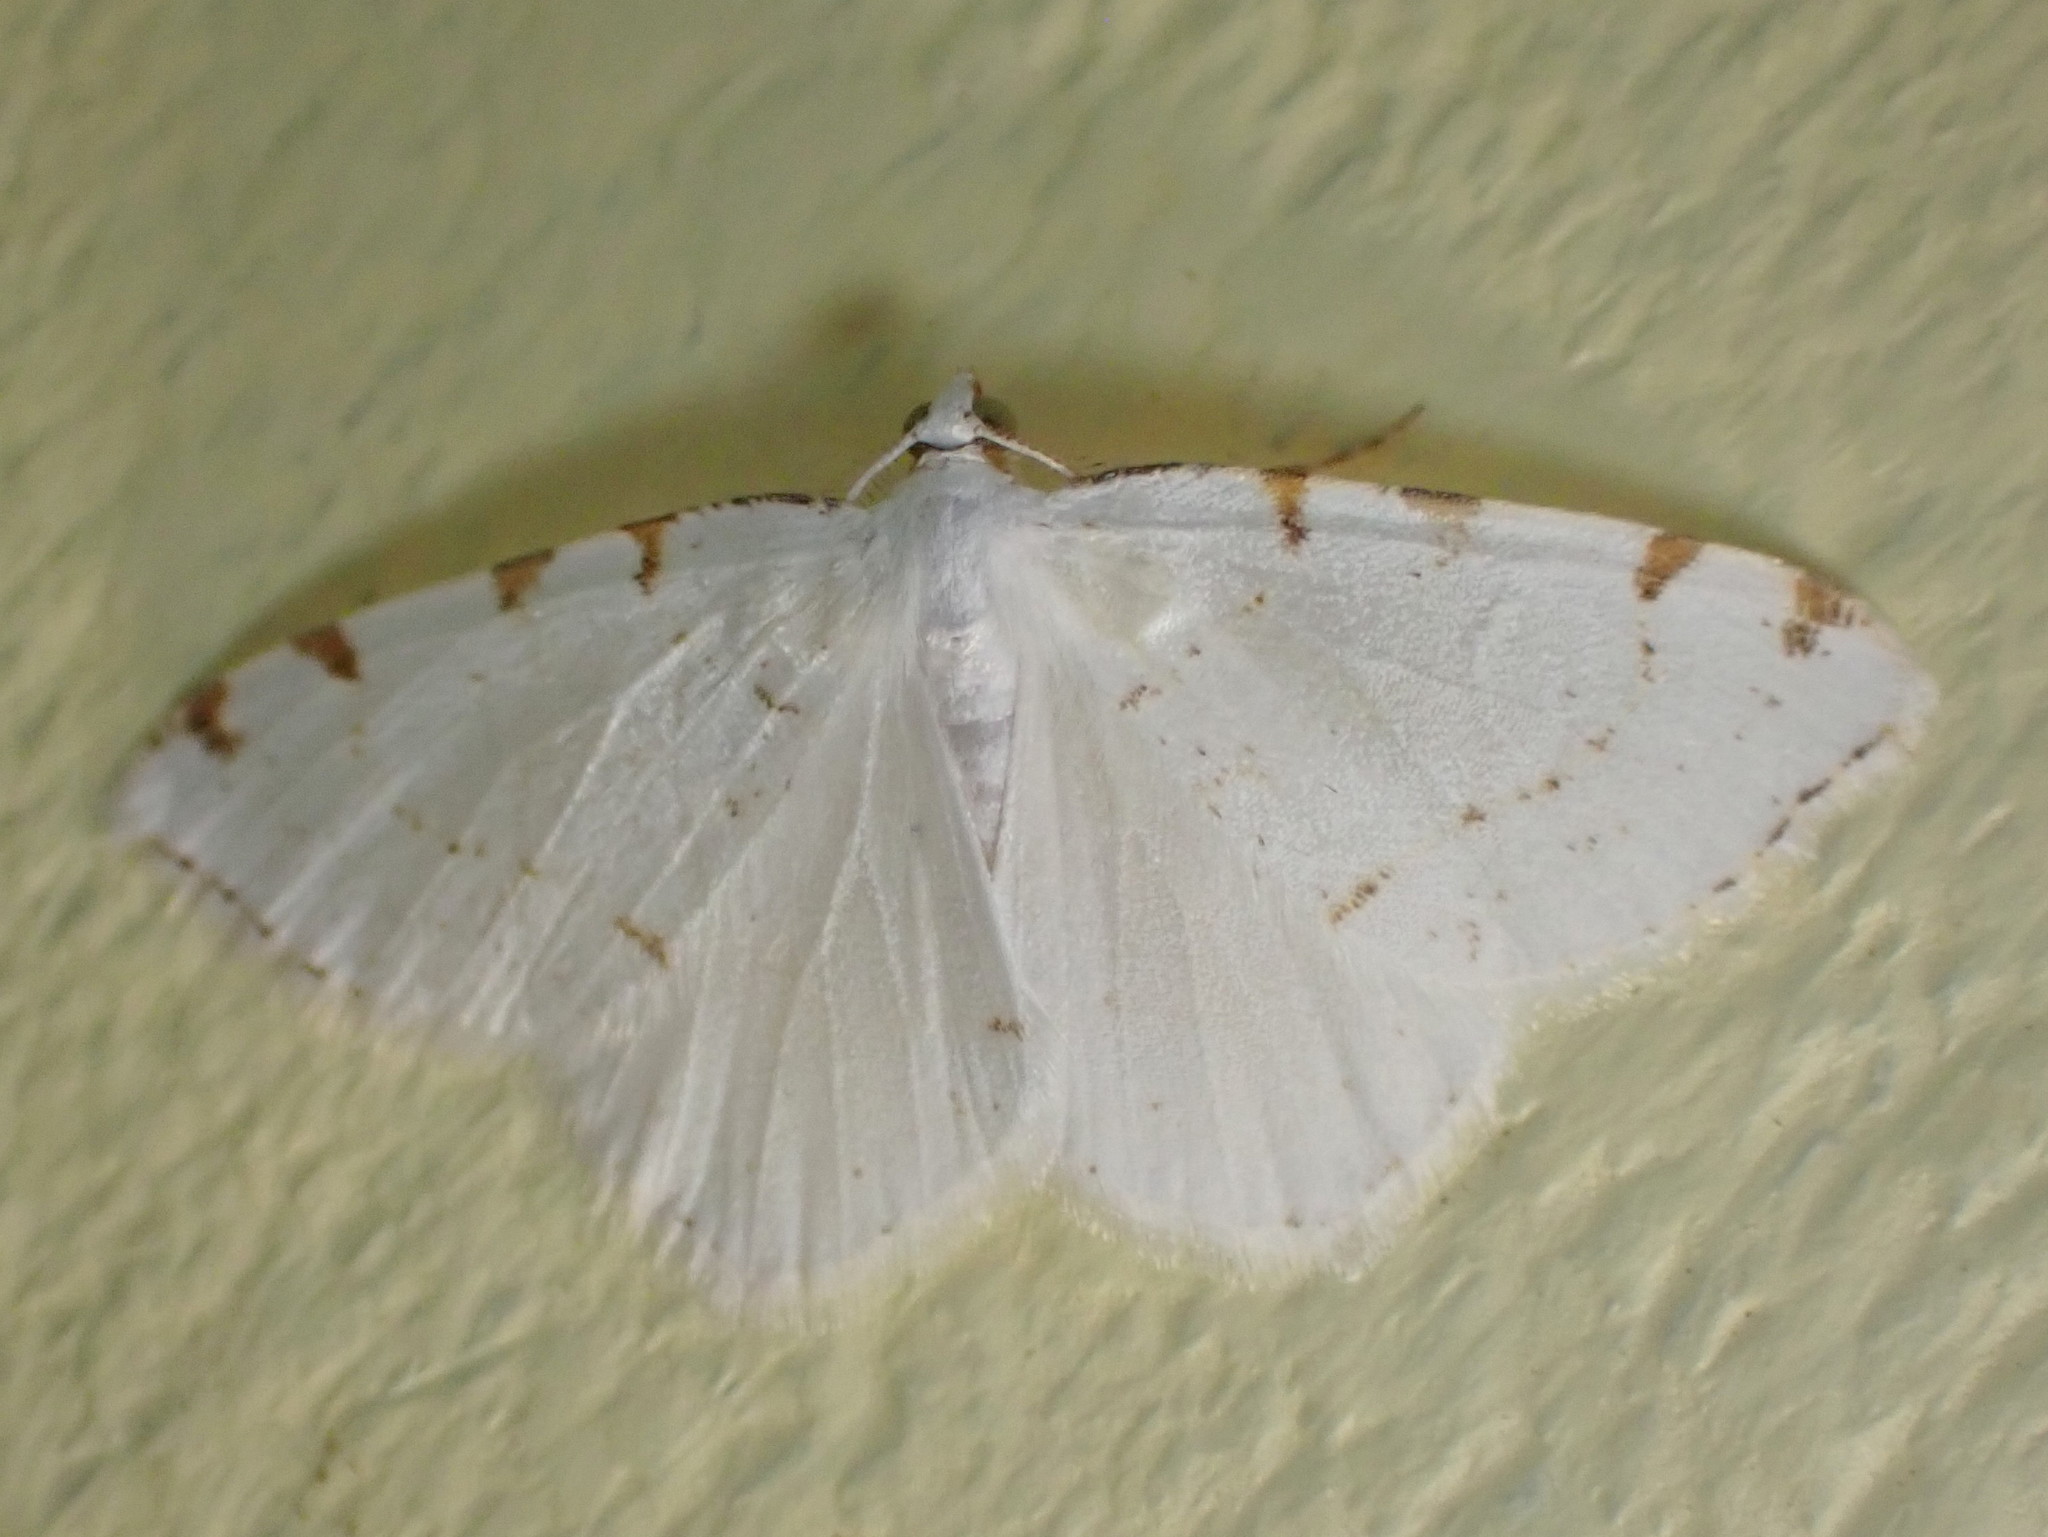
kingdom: Animalia
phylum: Arthropoda
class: Insecta
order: Lepidoptera
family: Geometridae
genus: Macaria
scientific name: Macaria pustularia
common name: Lesser maple spanworm moth
